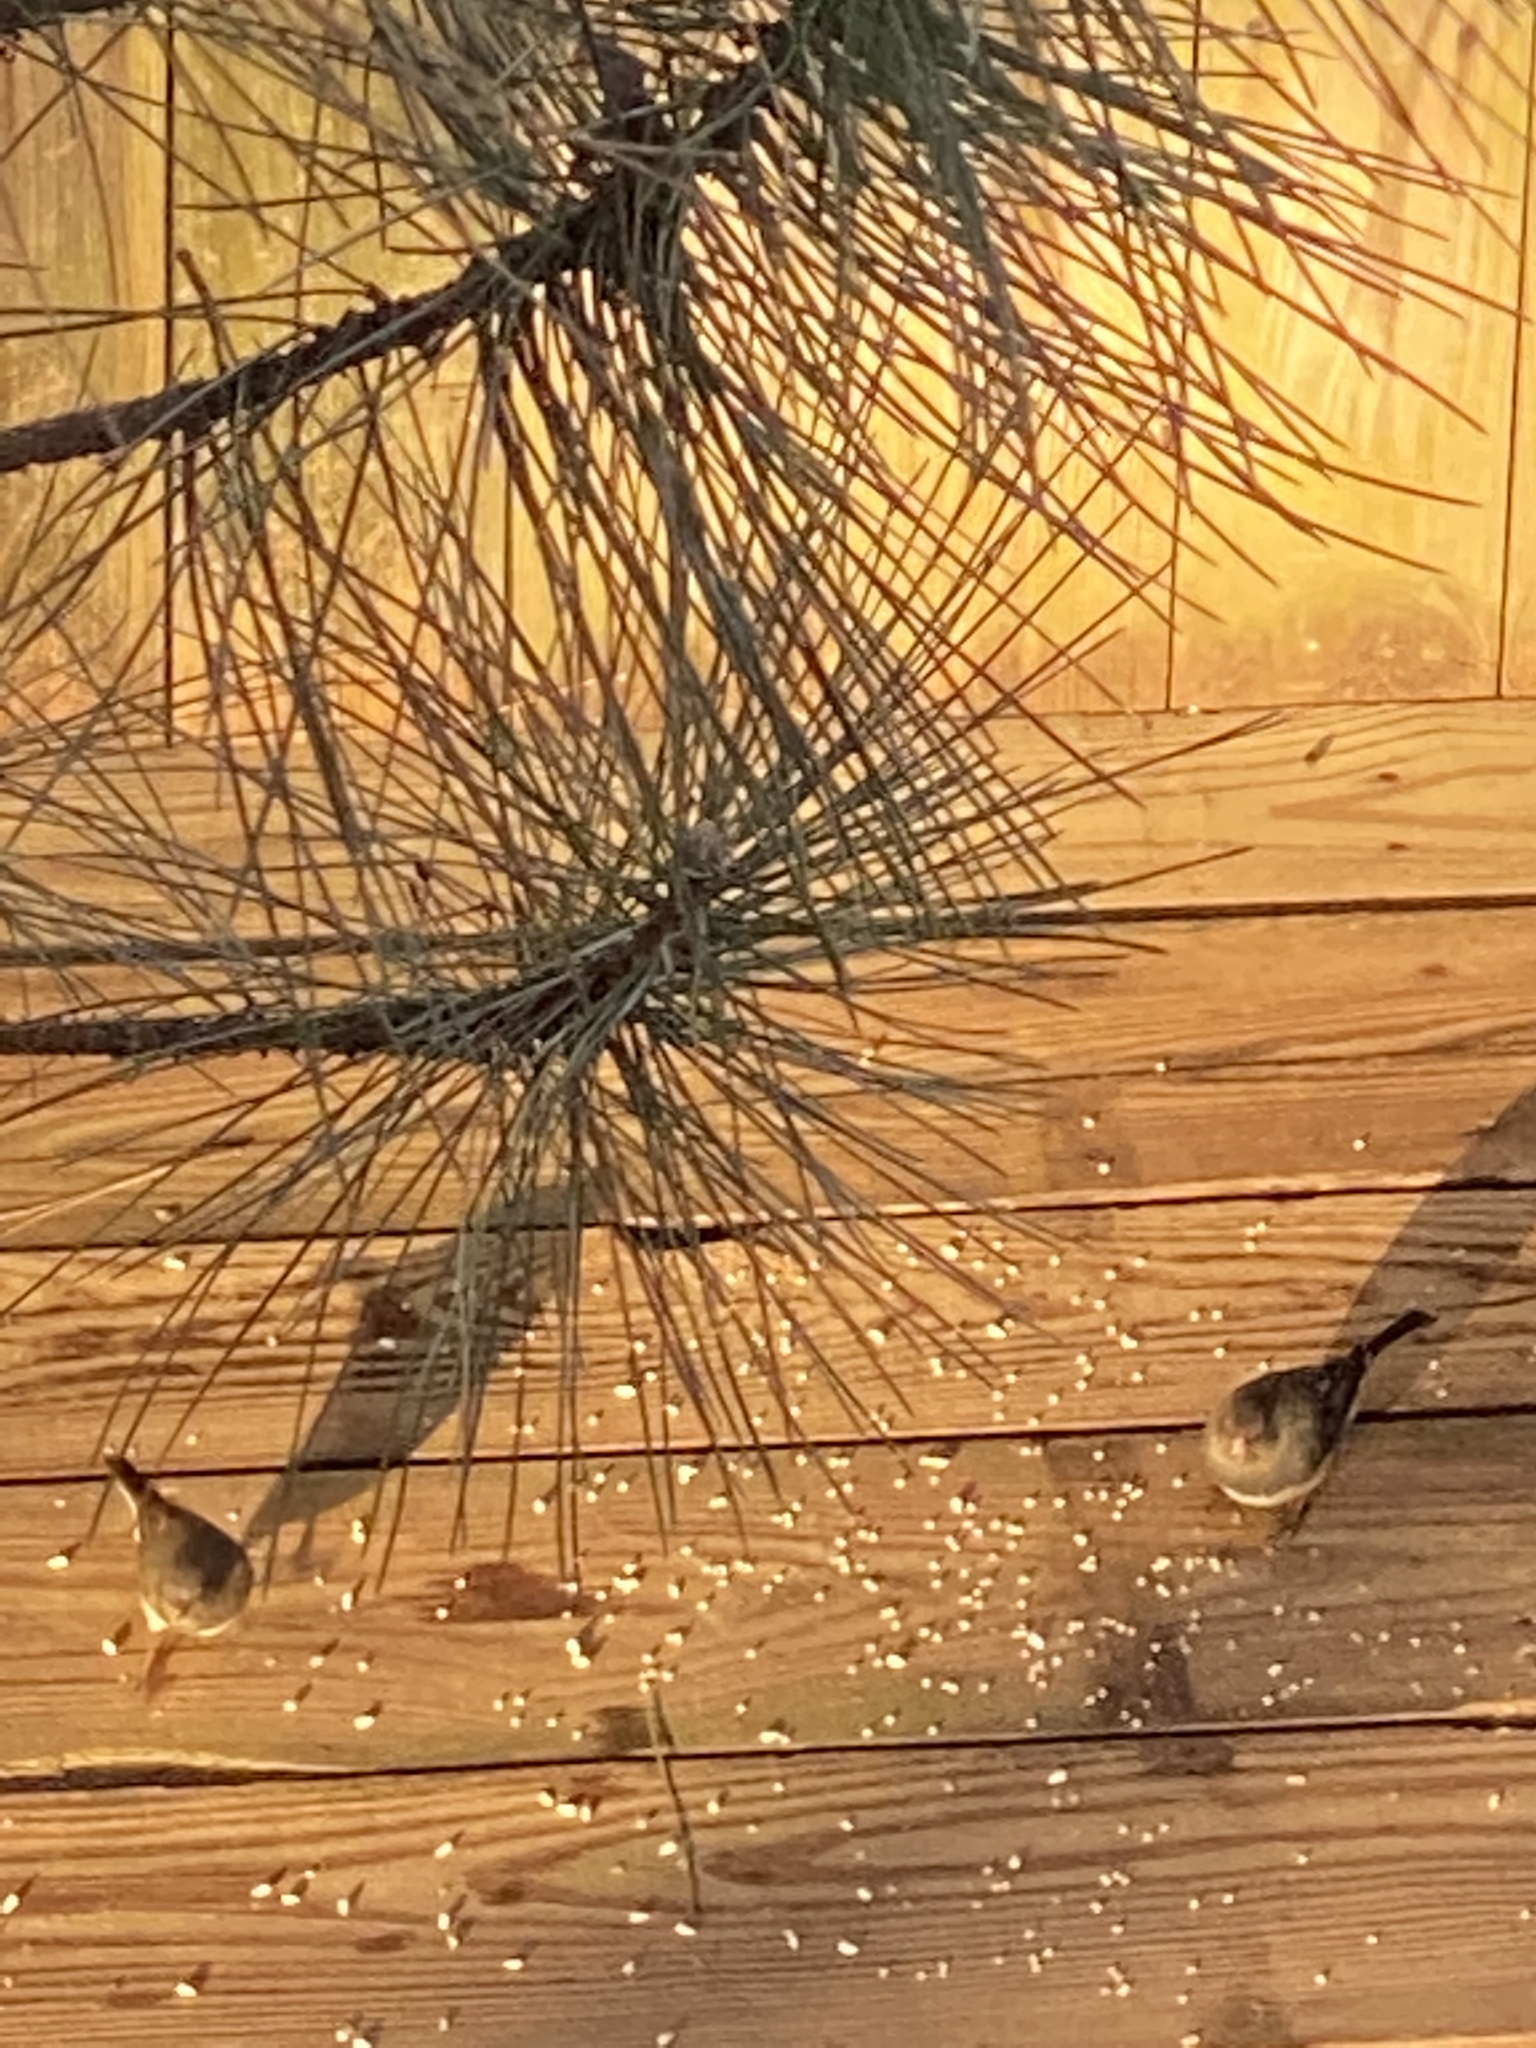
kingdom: Animalia
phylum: Chordata
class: Aves
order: Passeriformes
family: Passerellidae
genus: Junco
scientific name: Junco hyemalis
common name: Dark-eyed junco
